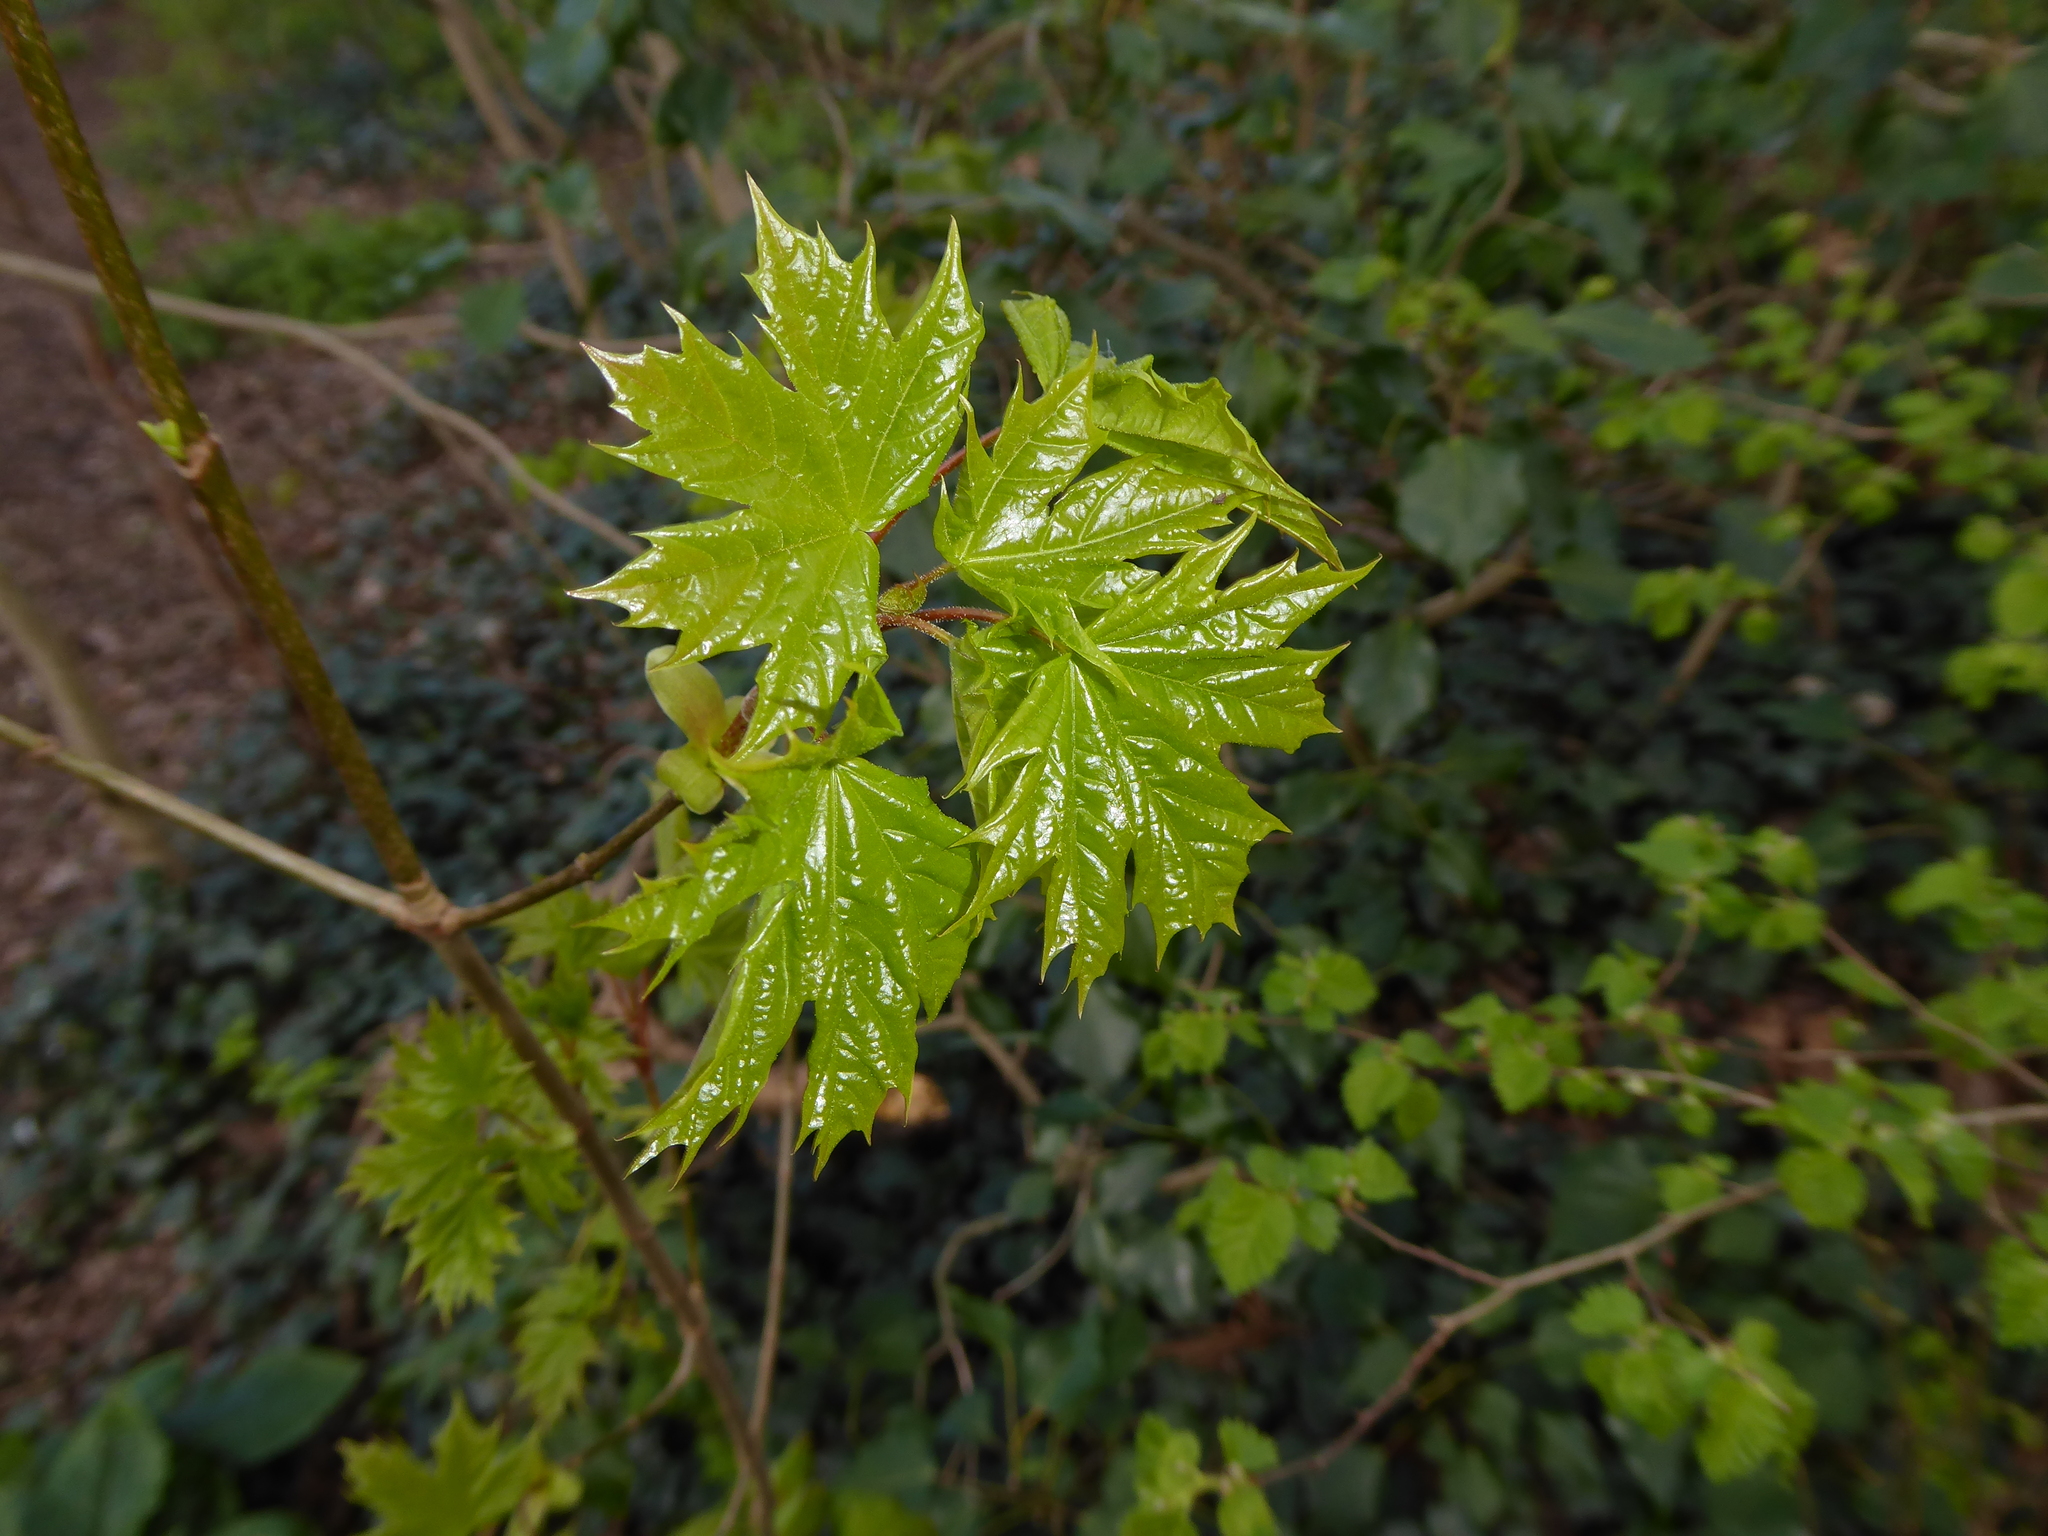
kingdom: Plantae
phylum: Tracheophyta
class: Magnoliopsida
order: Sapindales
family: Sapindaceae
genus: Acer
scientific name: Acer platanoides
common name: Norway maple
